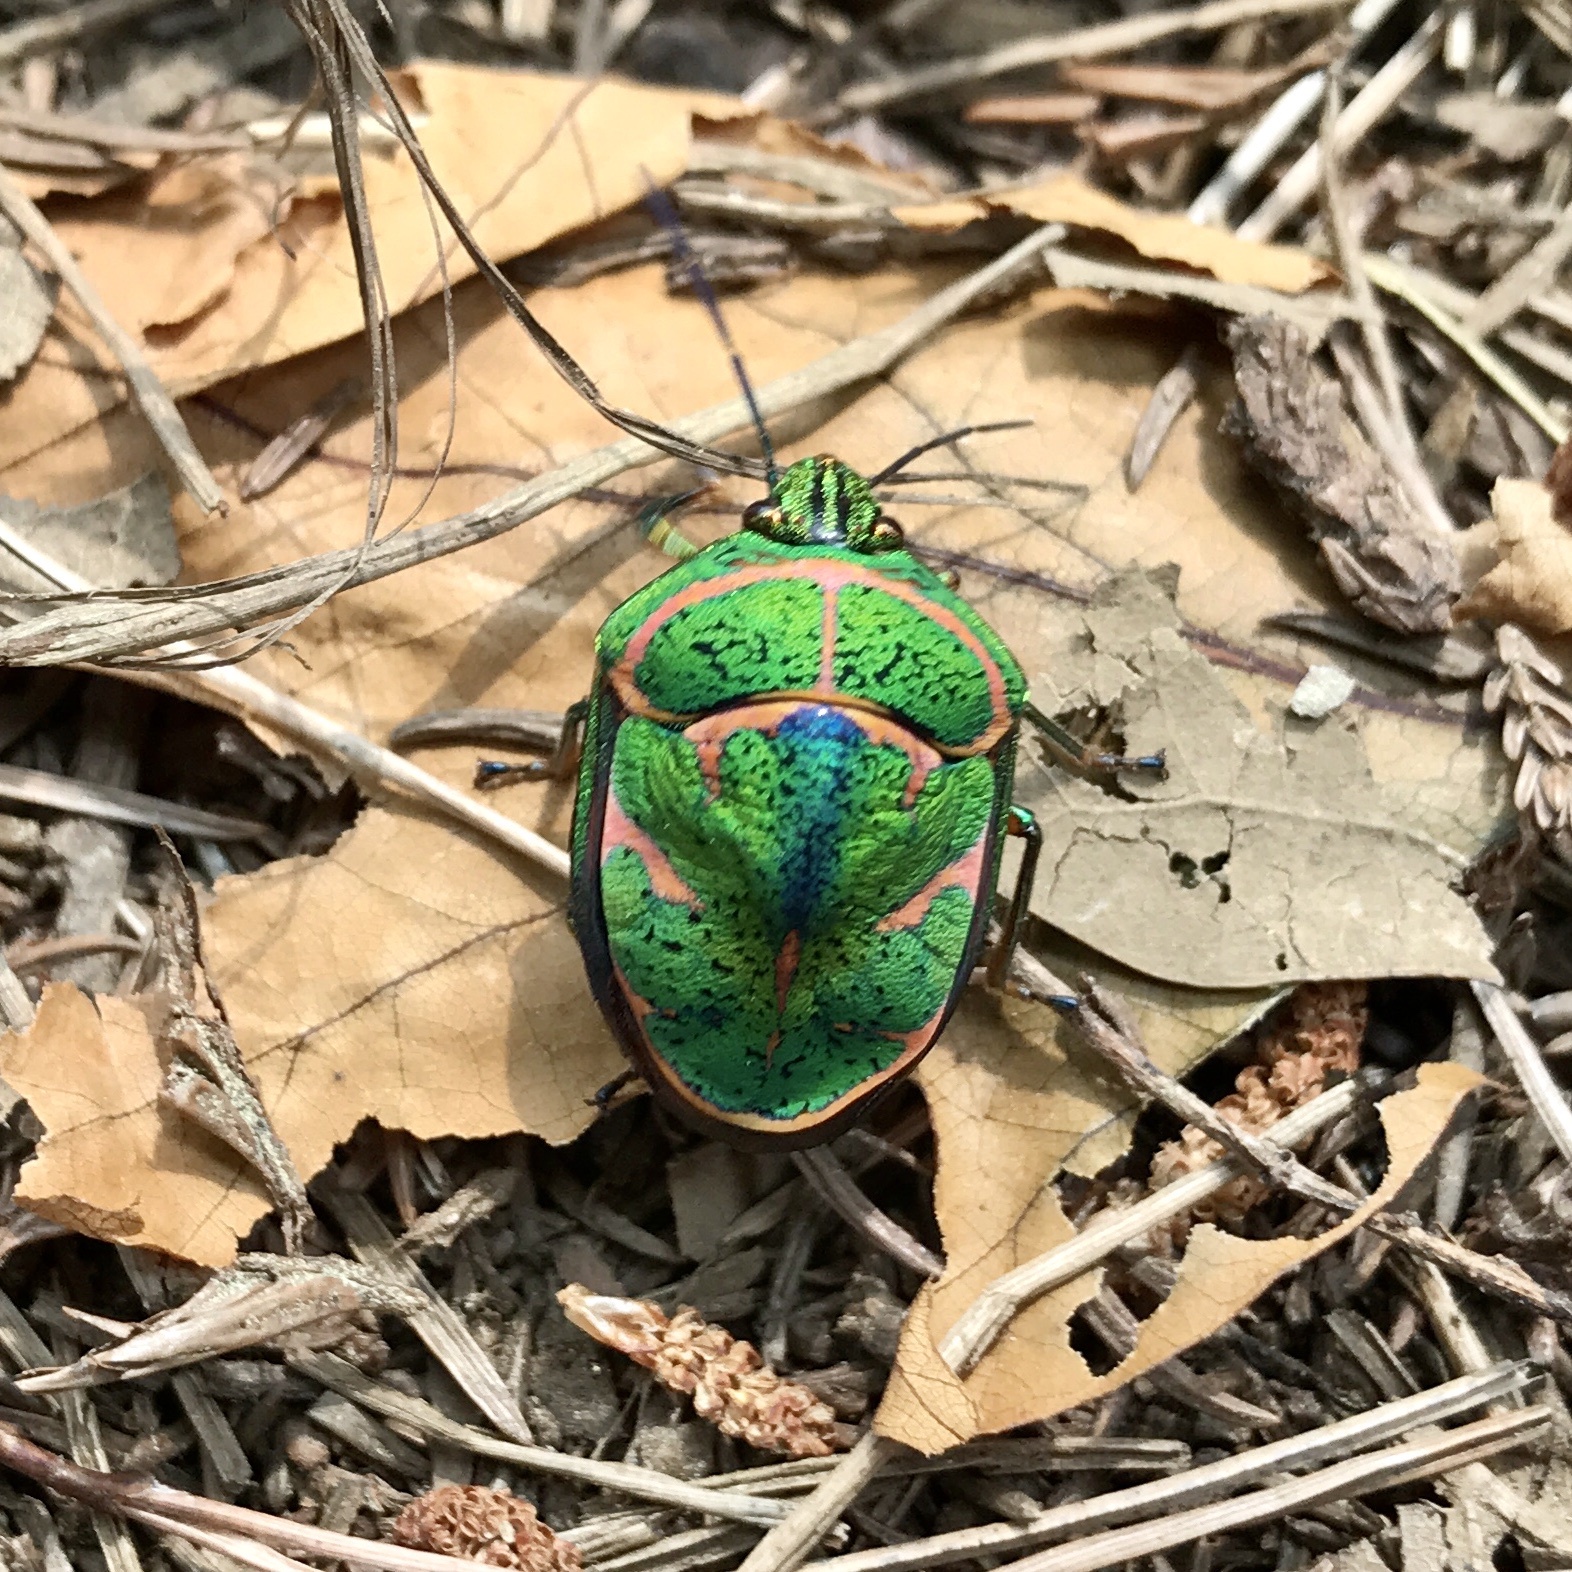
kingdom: Animalia
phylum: Arthropoda
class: Insecta
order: Hemiptera
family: Scutelleridae
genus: Poecilocoris
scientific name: Poecilocoris lewisi
